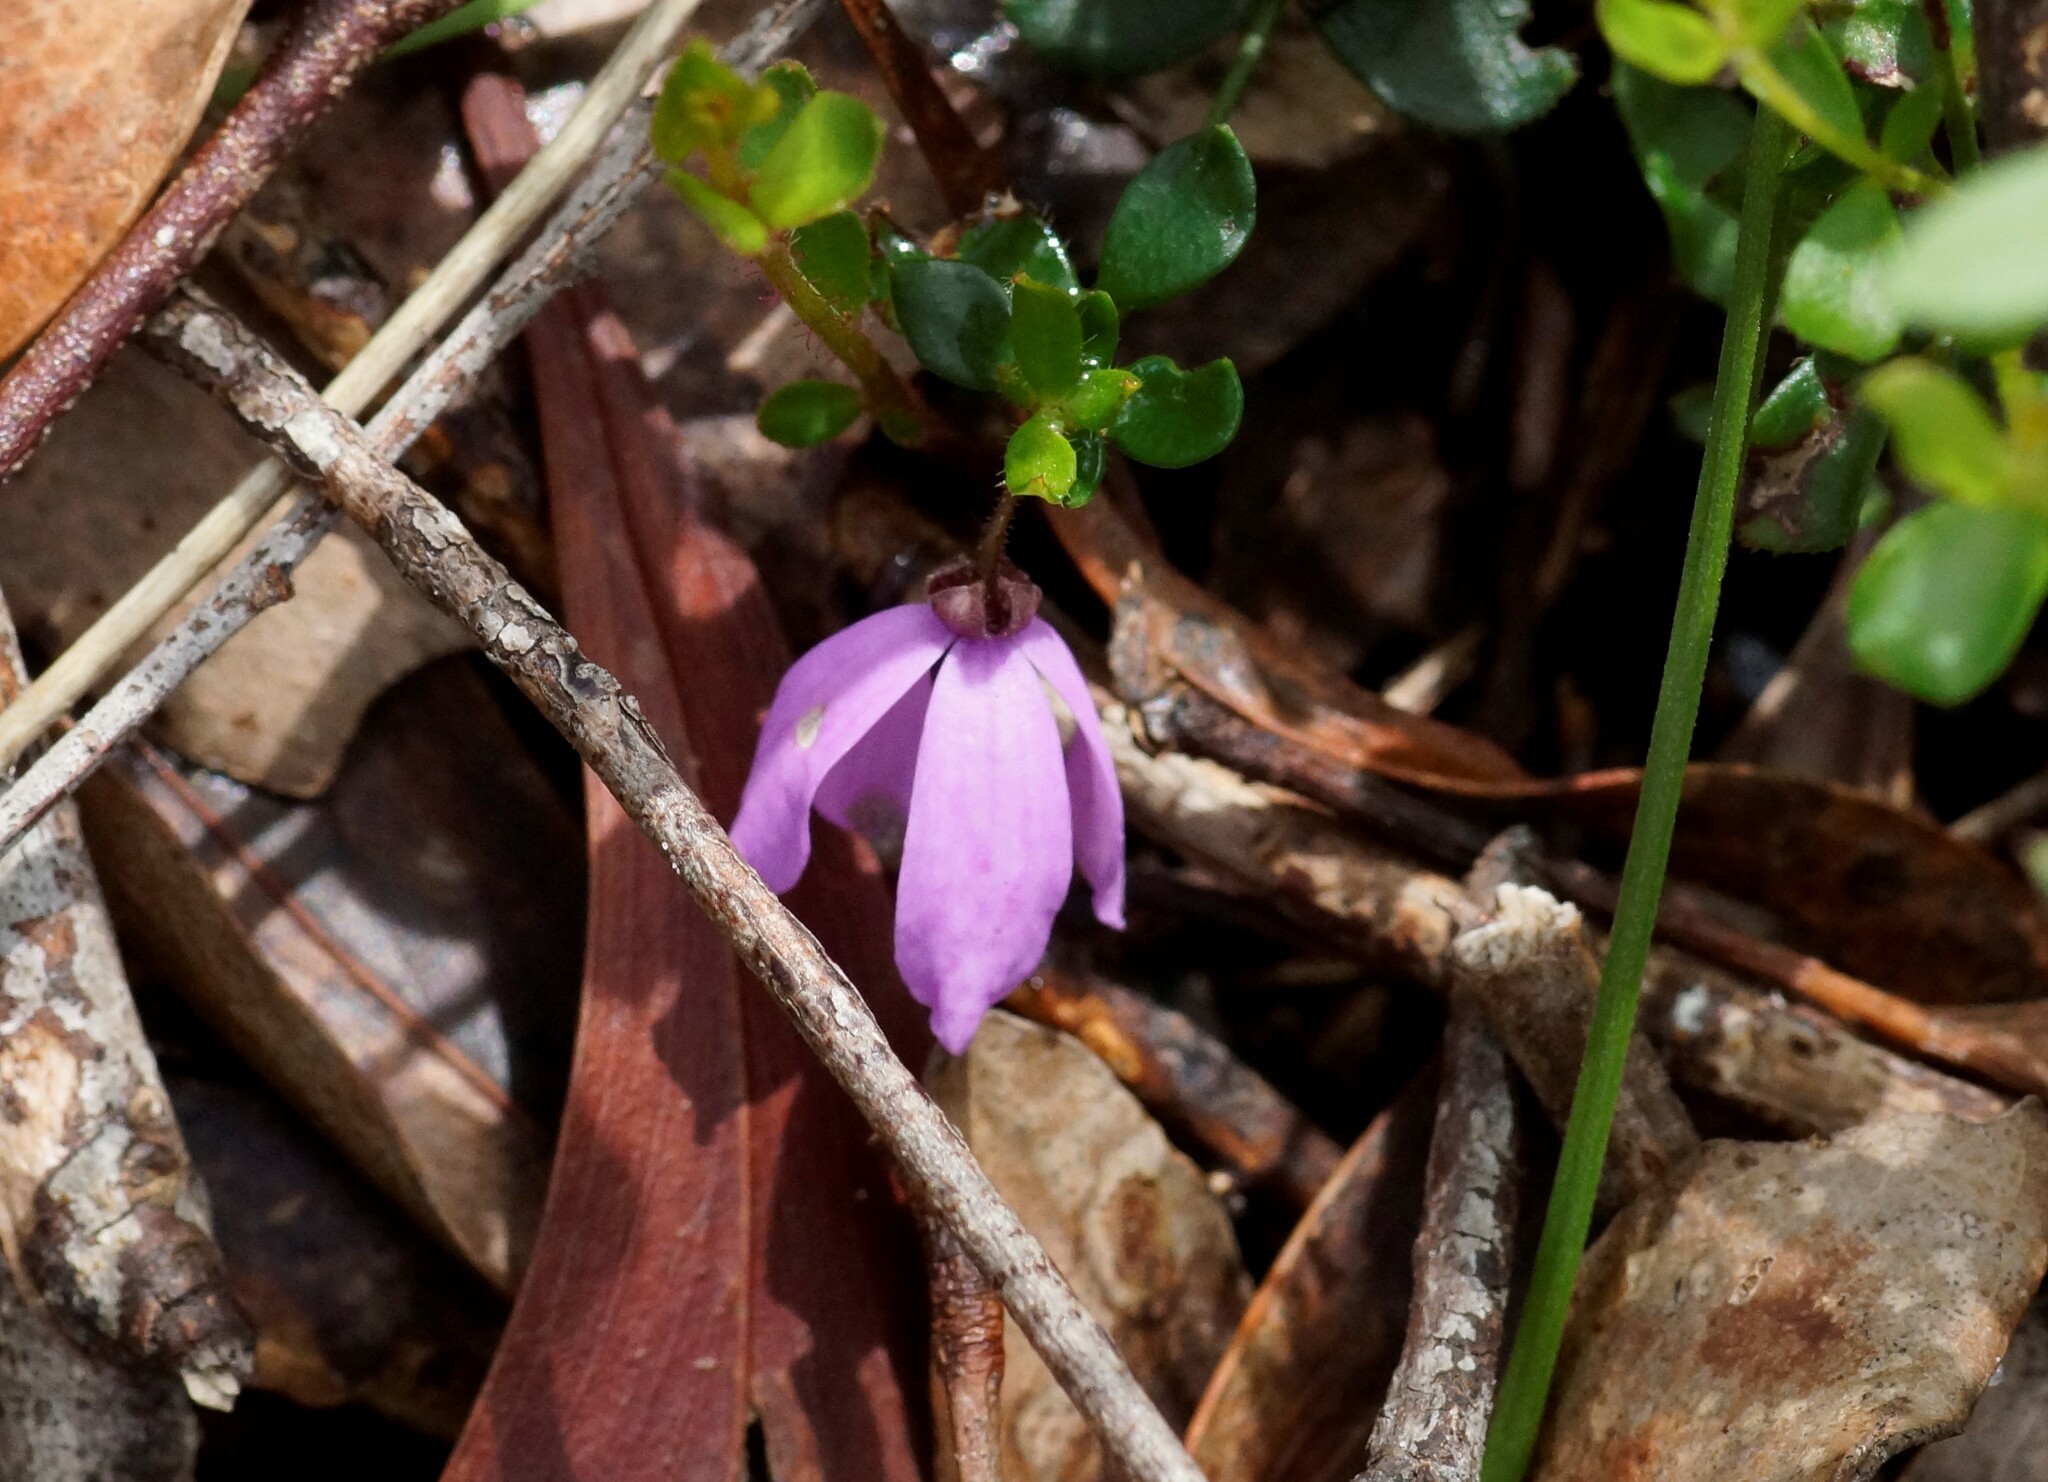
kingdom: Plantae
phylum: Tracheophyta
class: Magnoliopsida
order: Oxalidales
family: Elaeocarpaceae
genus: Tetratheca
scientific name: Tetratheca ciliata
